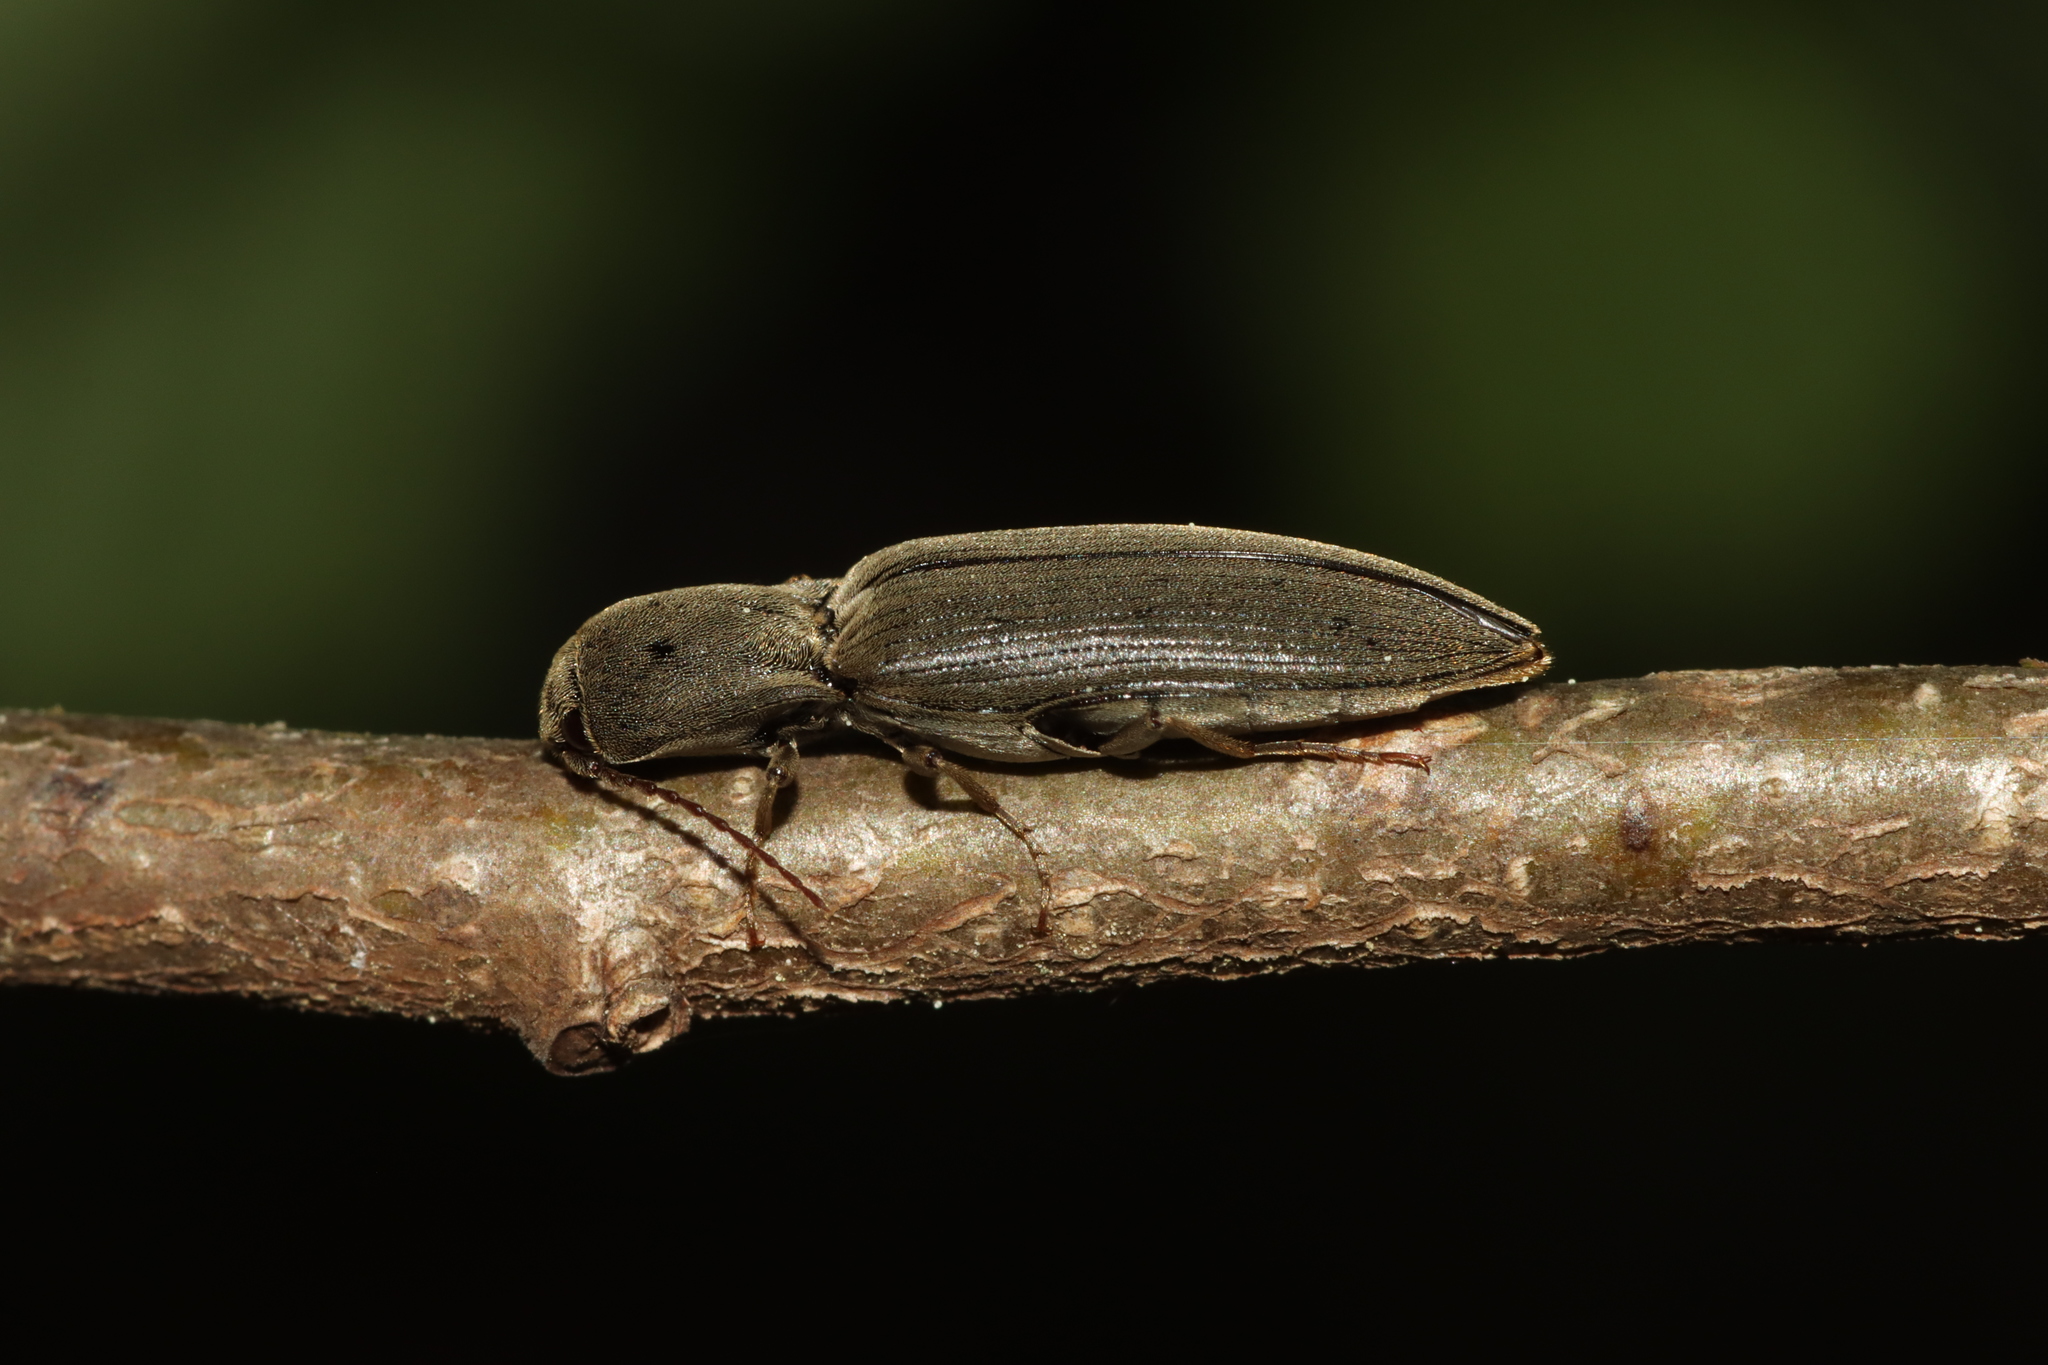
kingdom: Animalia
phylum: Arthropoda
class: Insecta
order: Coleoptera
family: Elateridae
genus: Agriotes
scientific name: Agriotes pilosellus
